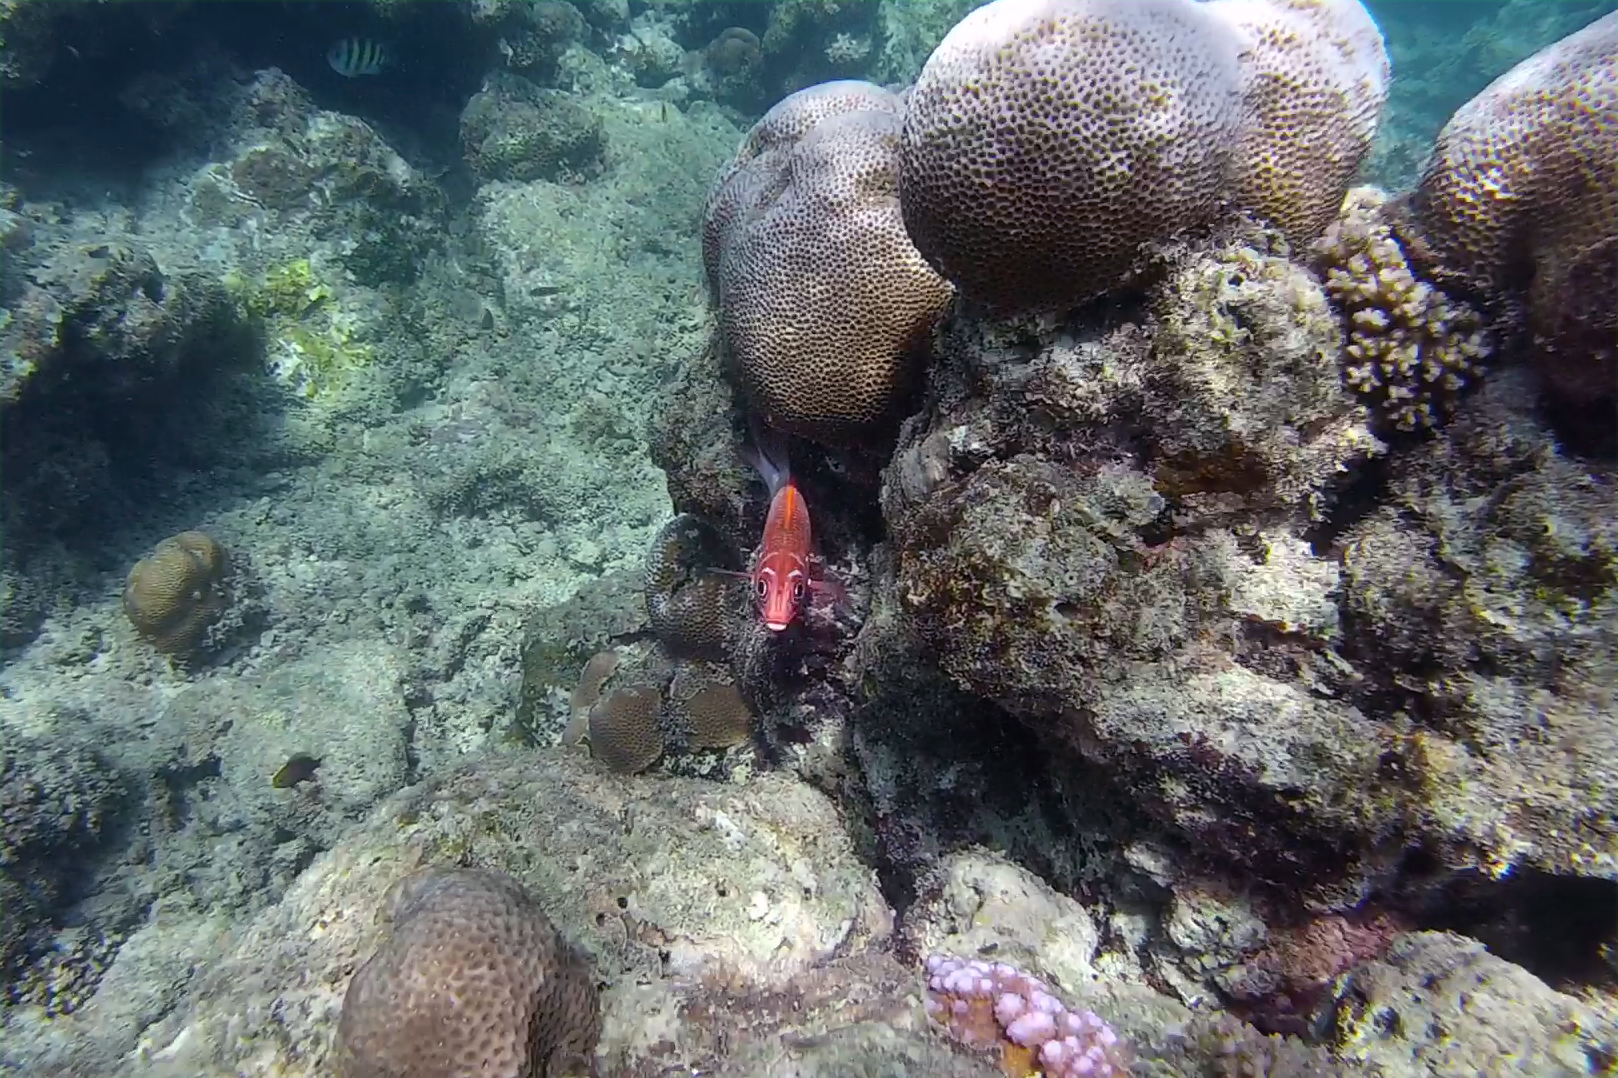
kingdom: Animalia
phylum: Chordata
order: Beryciformes
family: Holocentridae
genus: Sargocentron
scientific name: Sargocentron caudimaculatum
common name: Fanfin soldier
